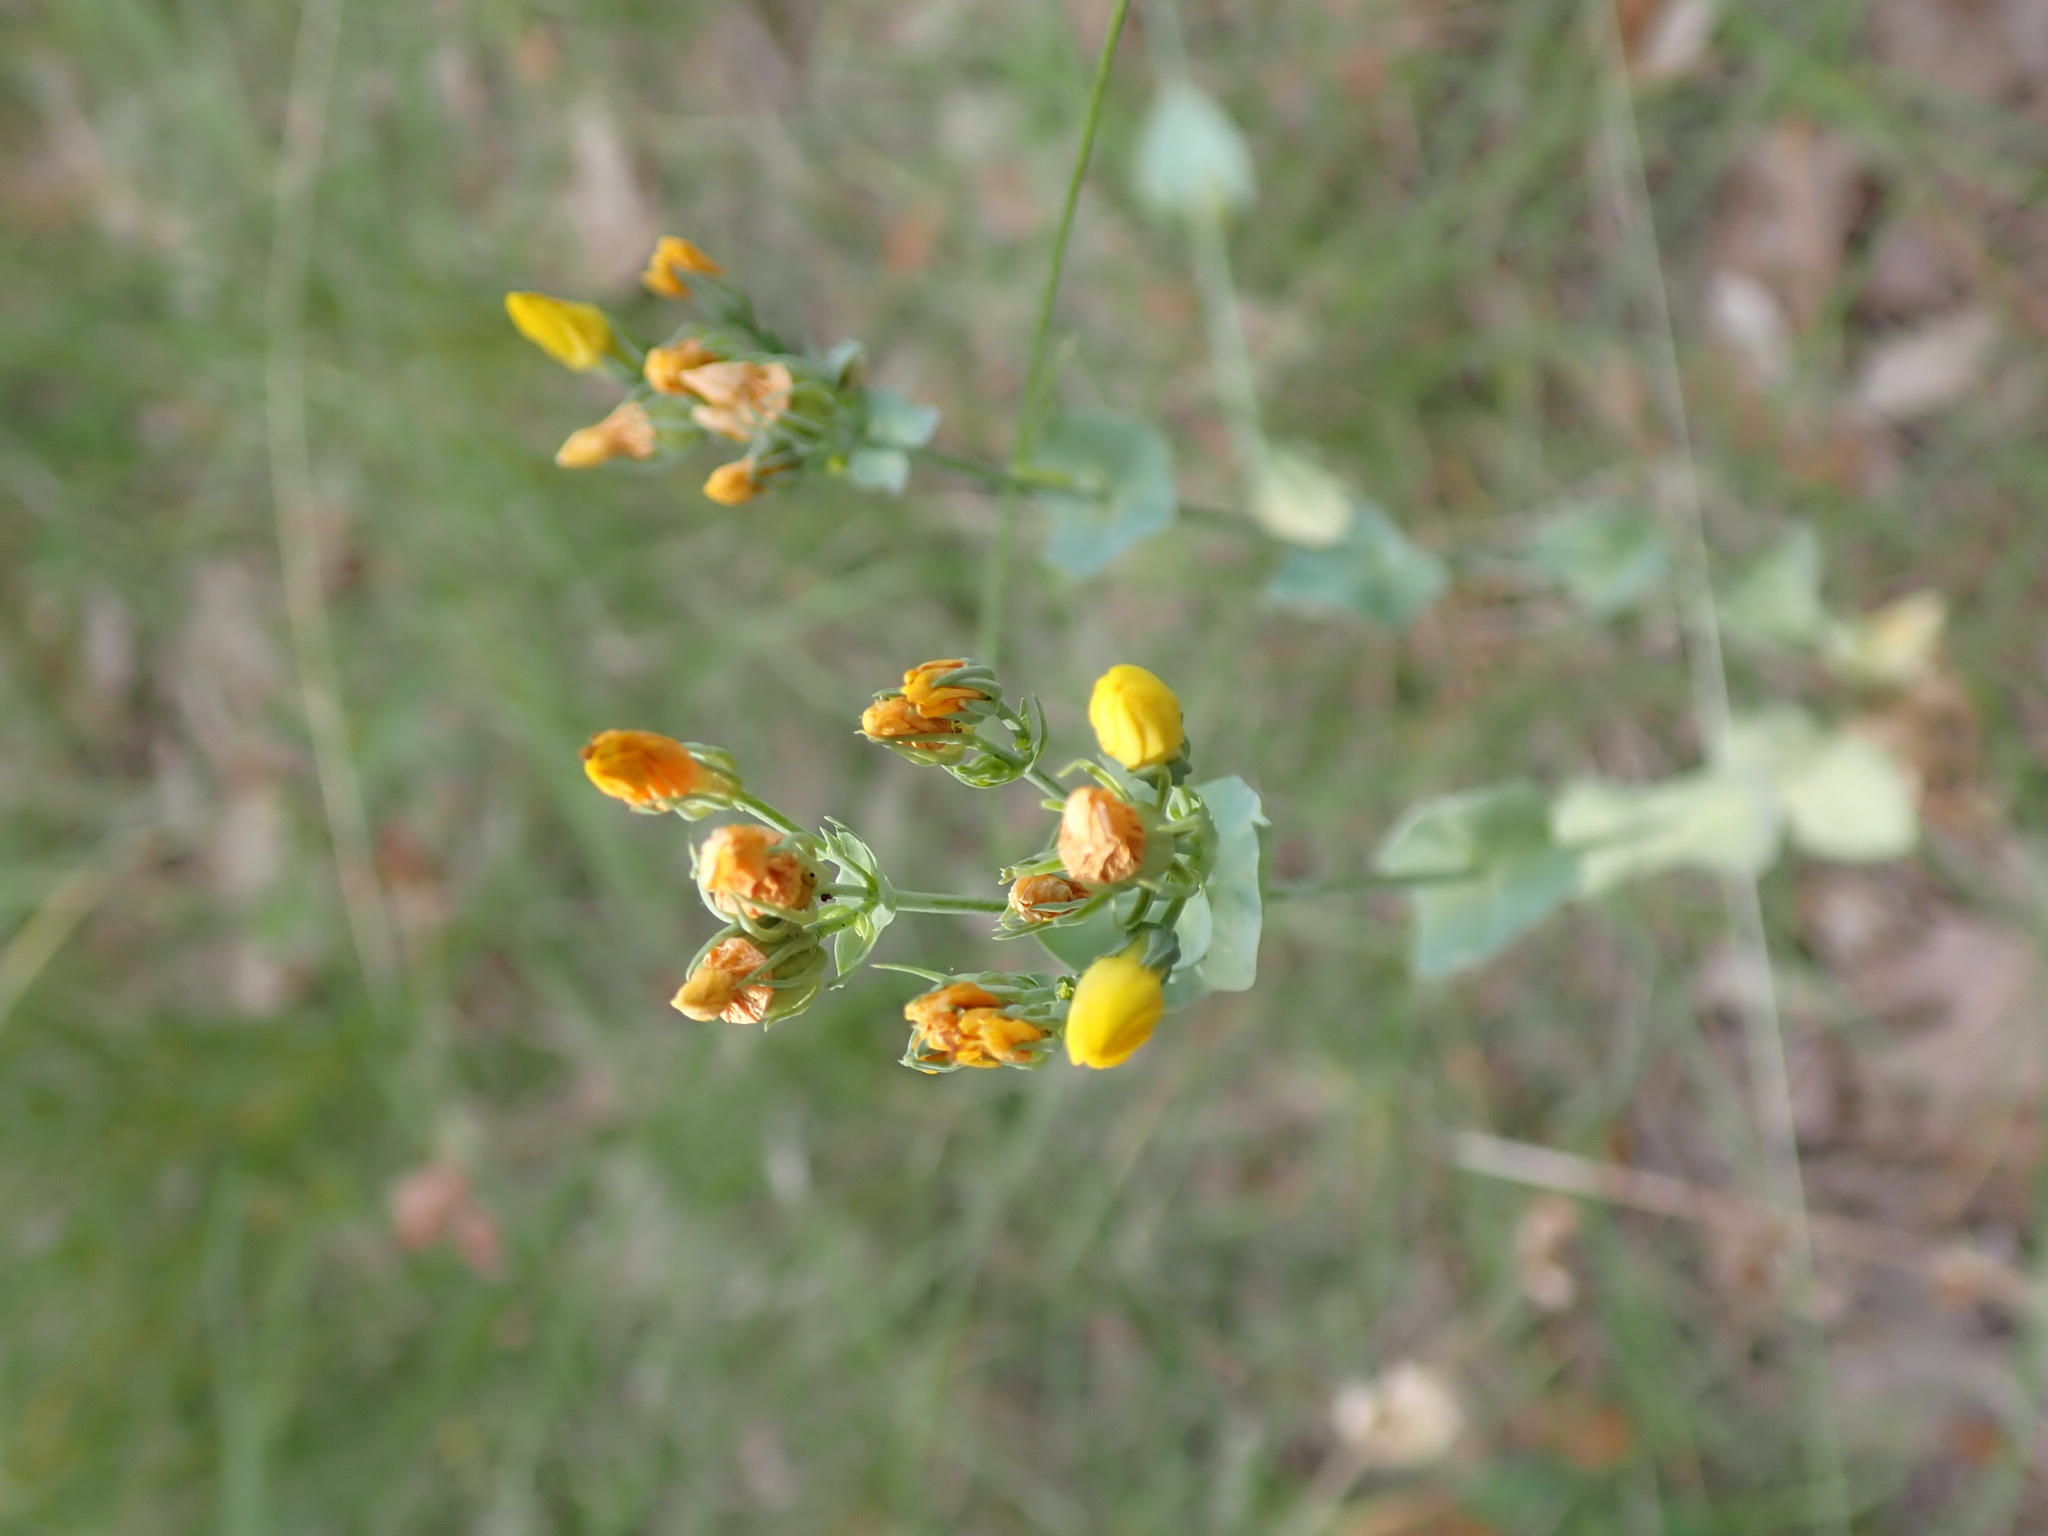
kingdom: Plantae
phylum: Tracheophyta
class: Magnoliopsida
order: Gentianales
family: Gentianaceae
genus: Blackstonia
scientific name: Blackstonia perfoliata
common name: Yellow-wort
